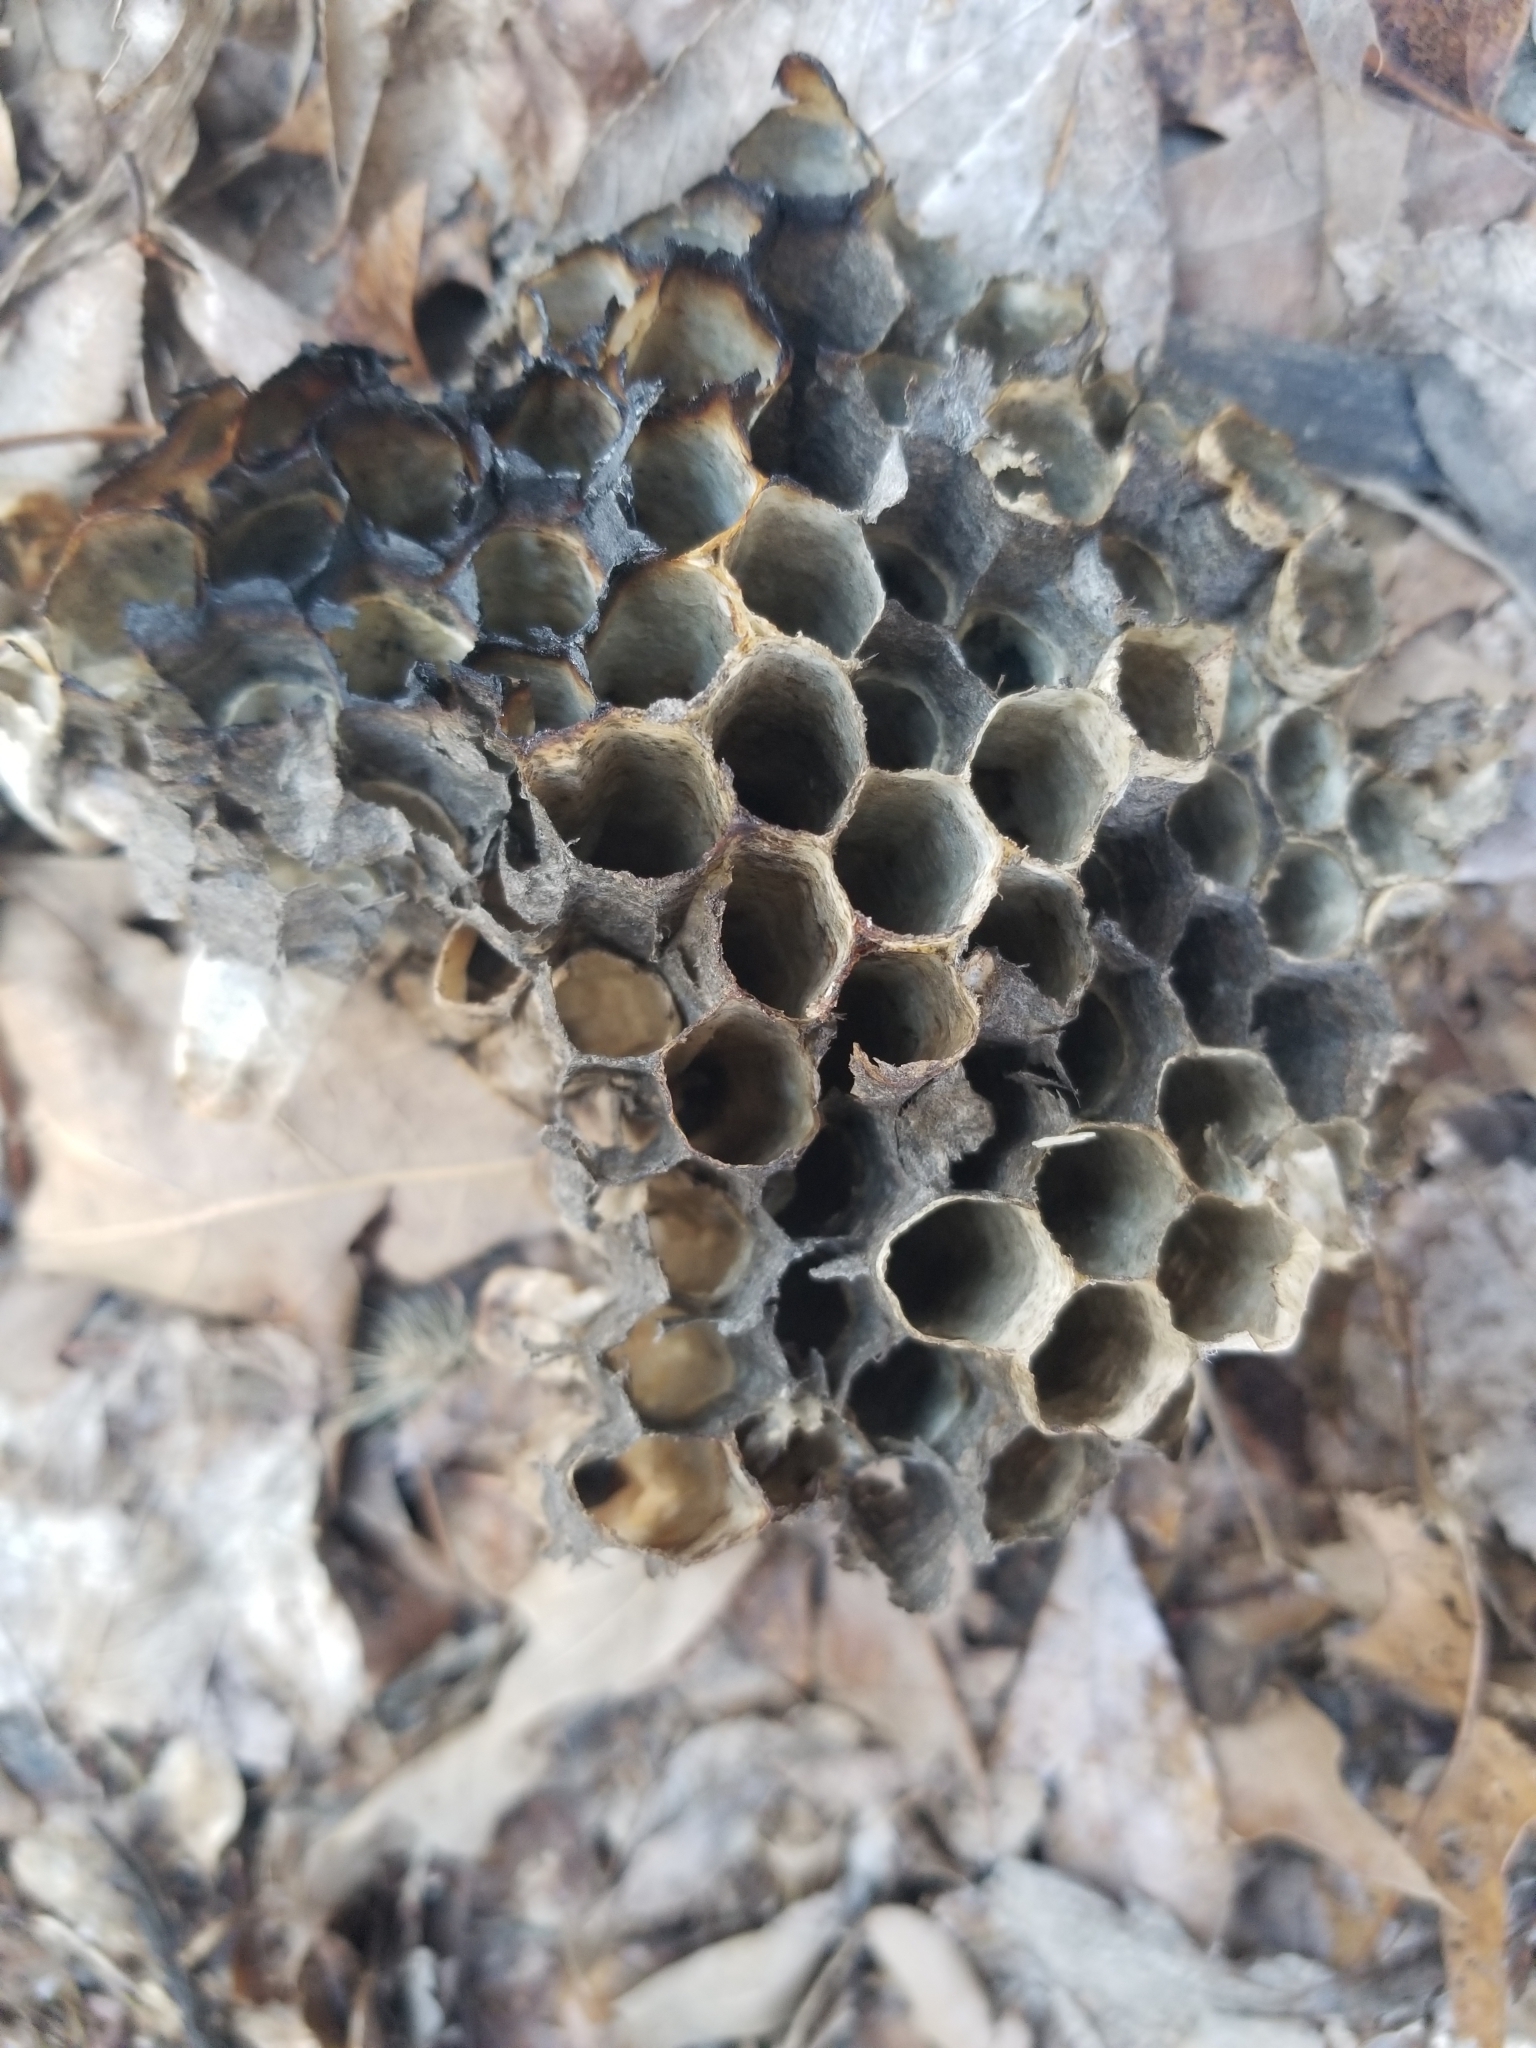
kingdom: Animalia
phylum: Arthropoda
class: Insecta
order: Hymenoptera
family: Eumenidae
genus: Polistes
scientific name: Polistes
